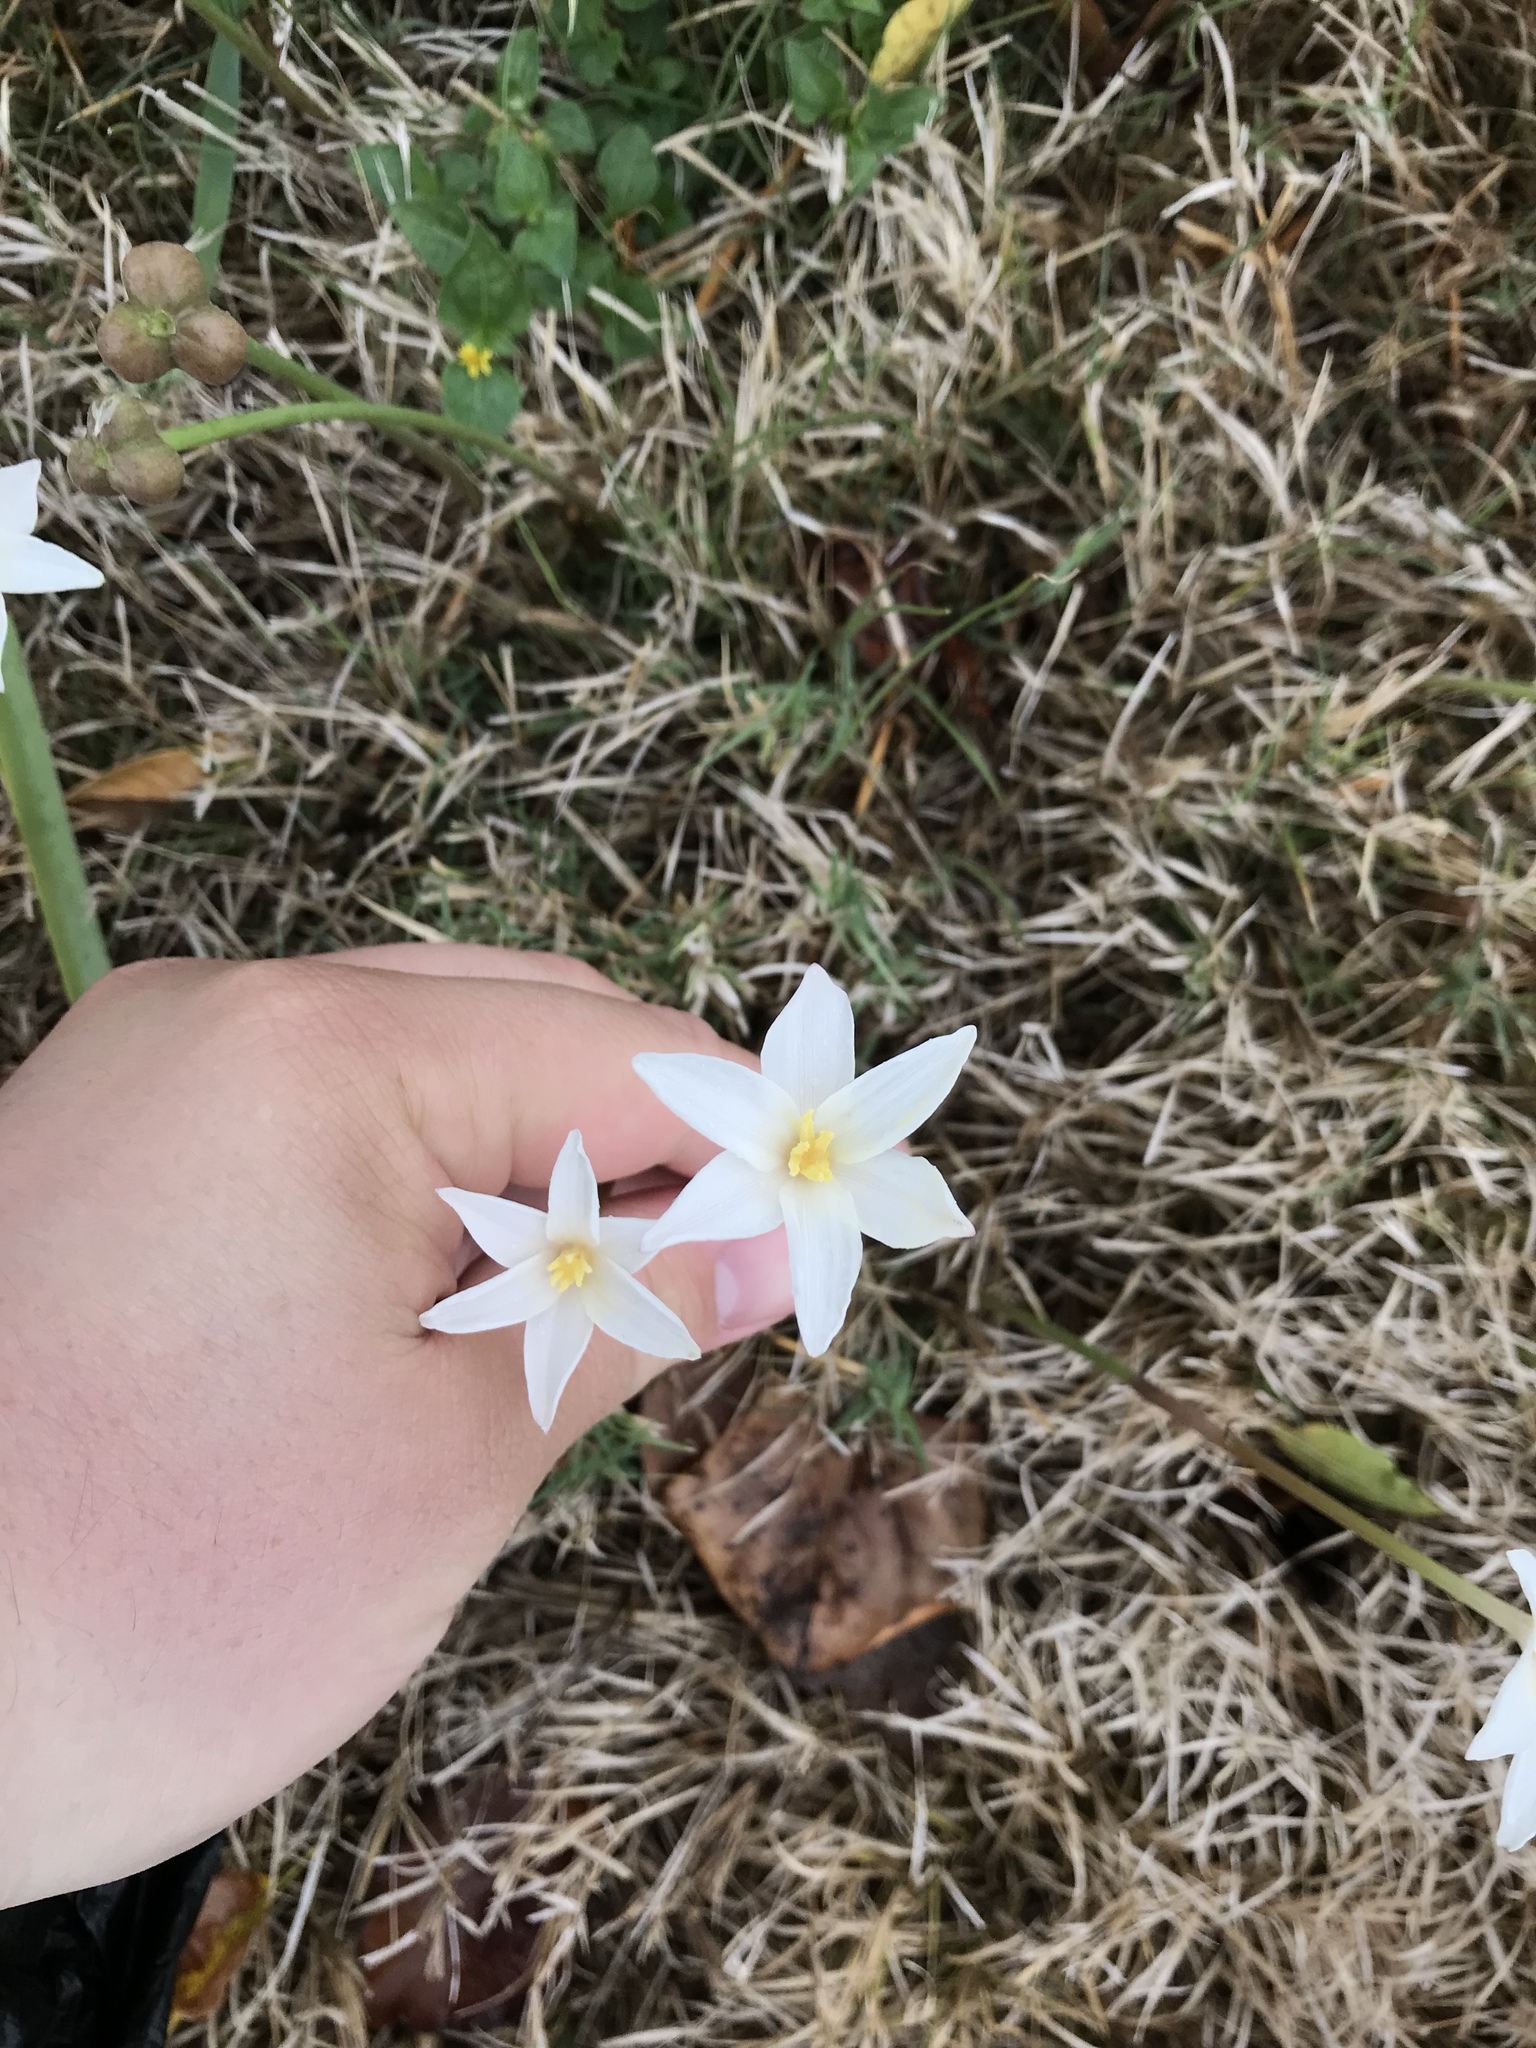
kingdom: Plantae
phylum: Tracheophyta
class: Liliopsida
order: Asparagales
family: Amaryllidaceae
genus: Zephyranthes
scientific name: Zephyranthes chlorosolen
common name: Evening rain-lily
